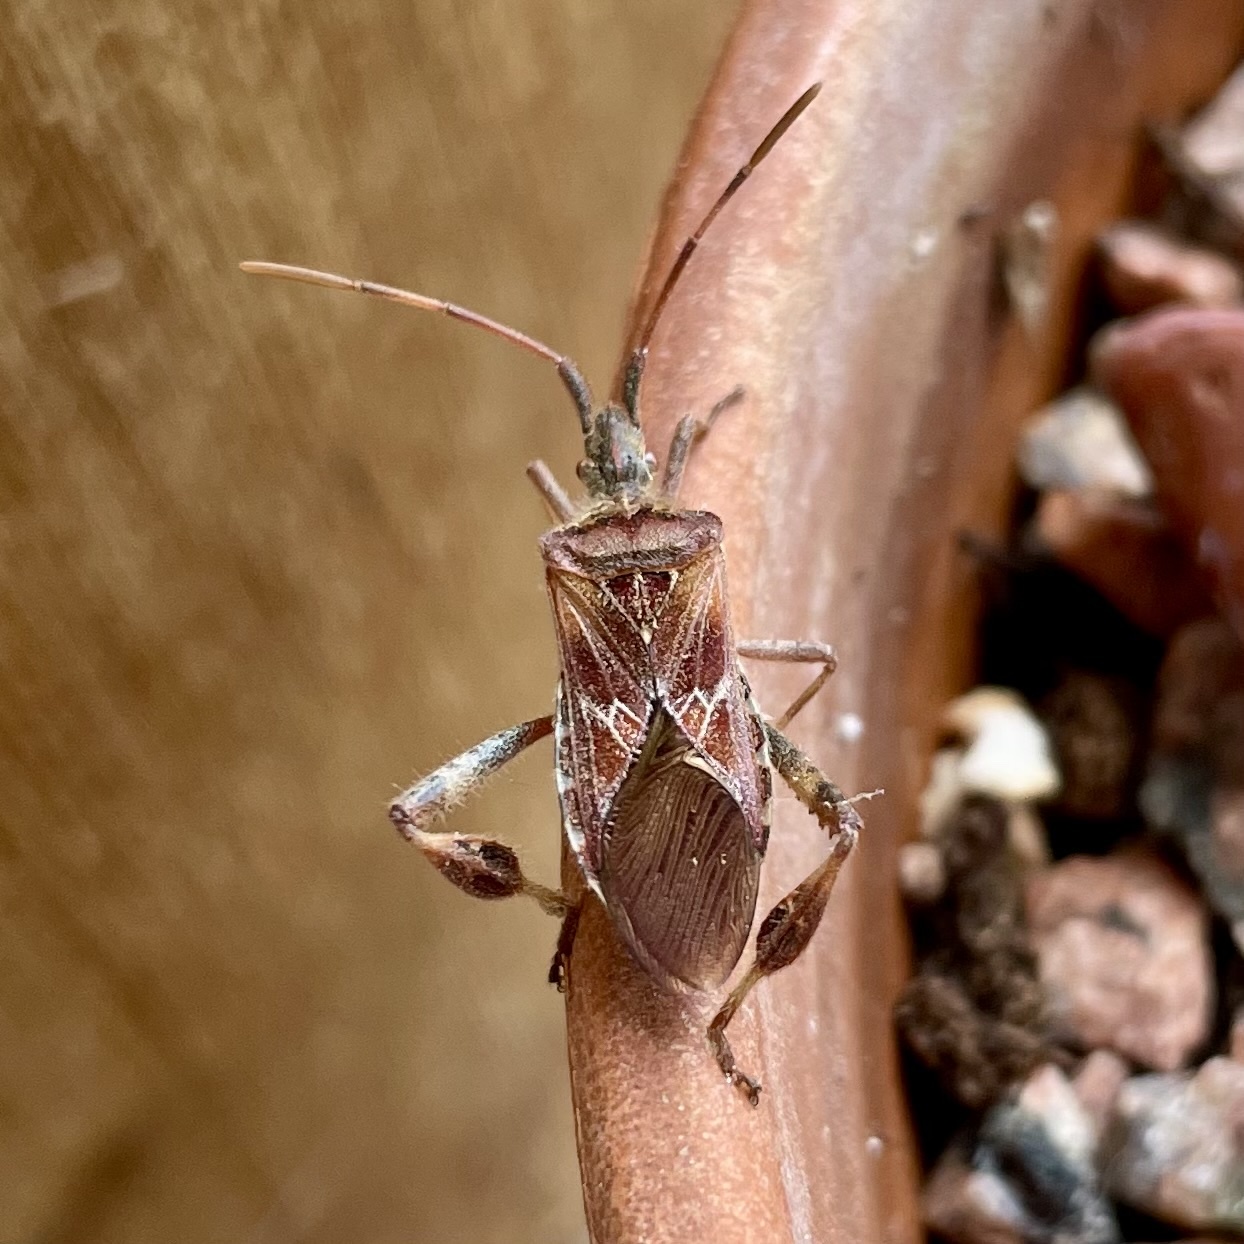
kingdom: Animalia
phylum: Arthropoda
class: Insecta
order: Hemiptera
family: Coreidae
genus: Leptoglossus
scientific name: Leptoglossus occidentalis
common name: Western conifer-seed bug
